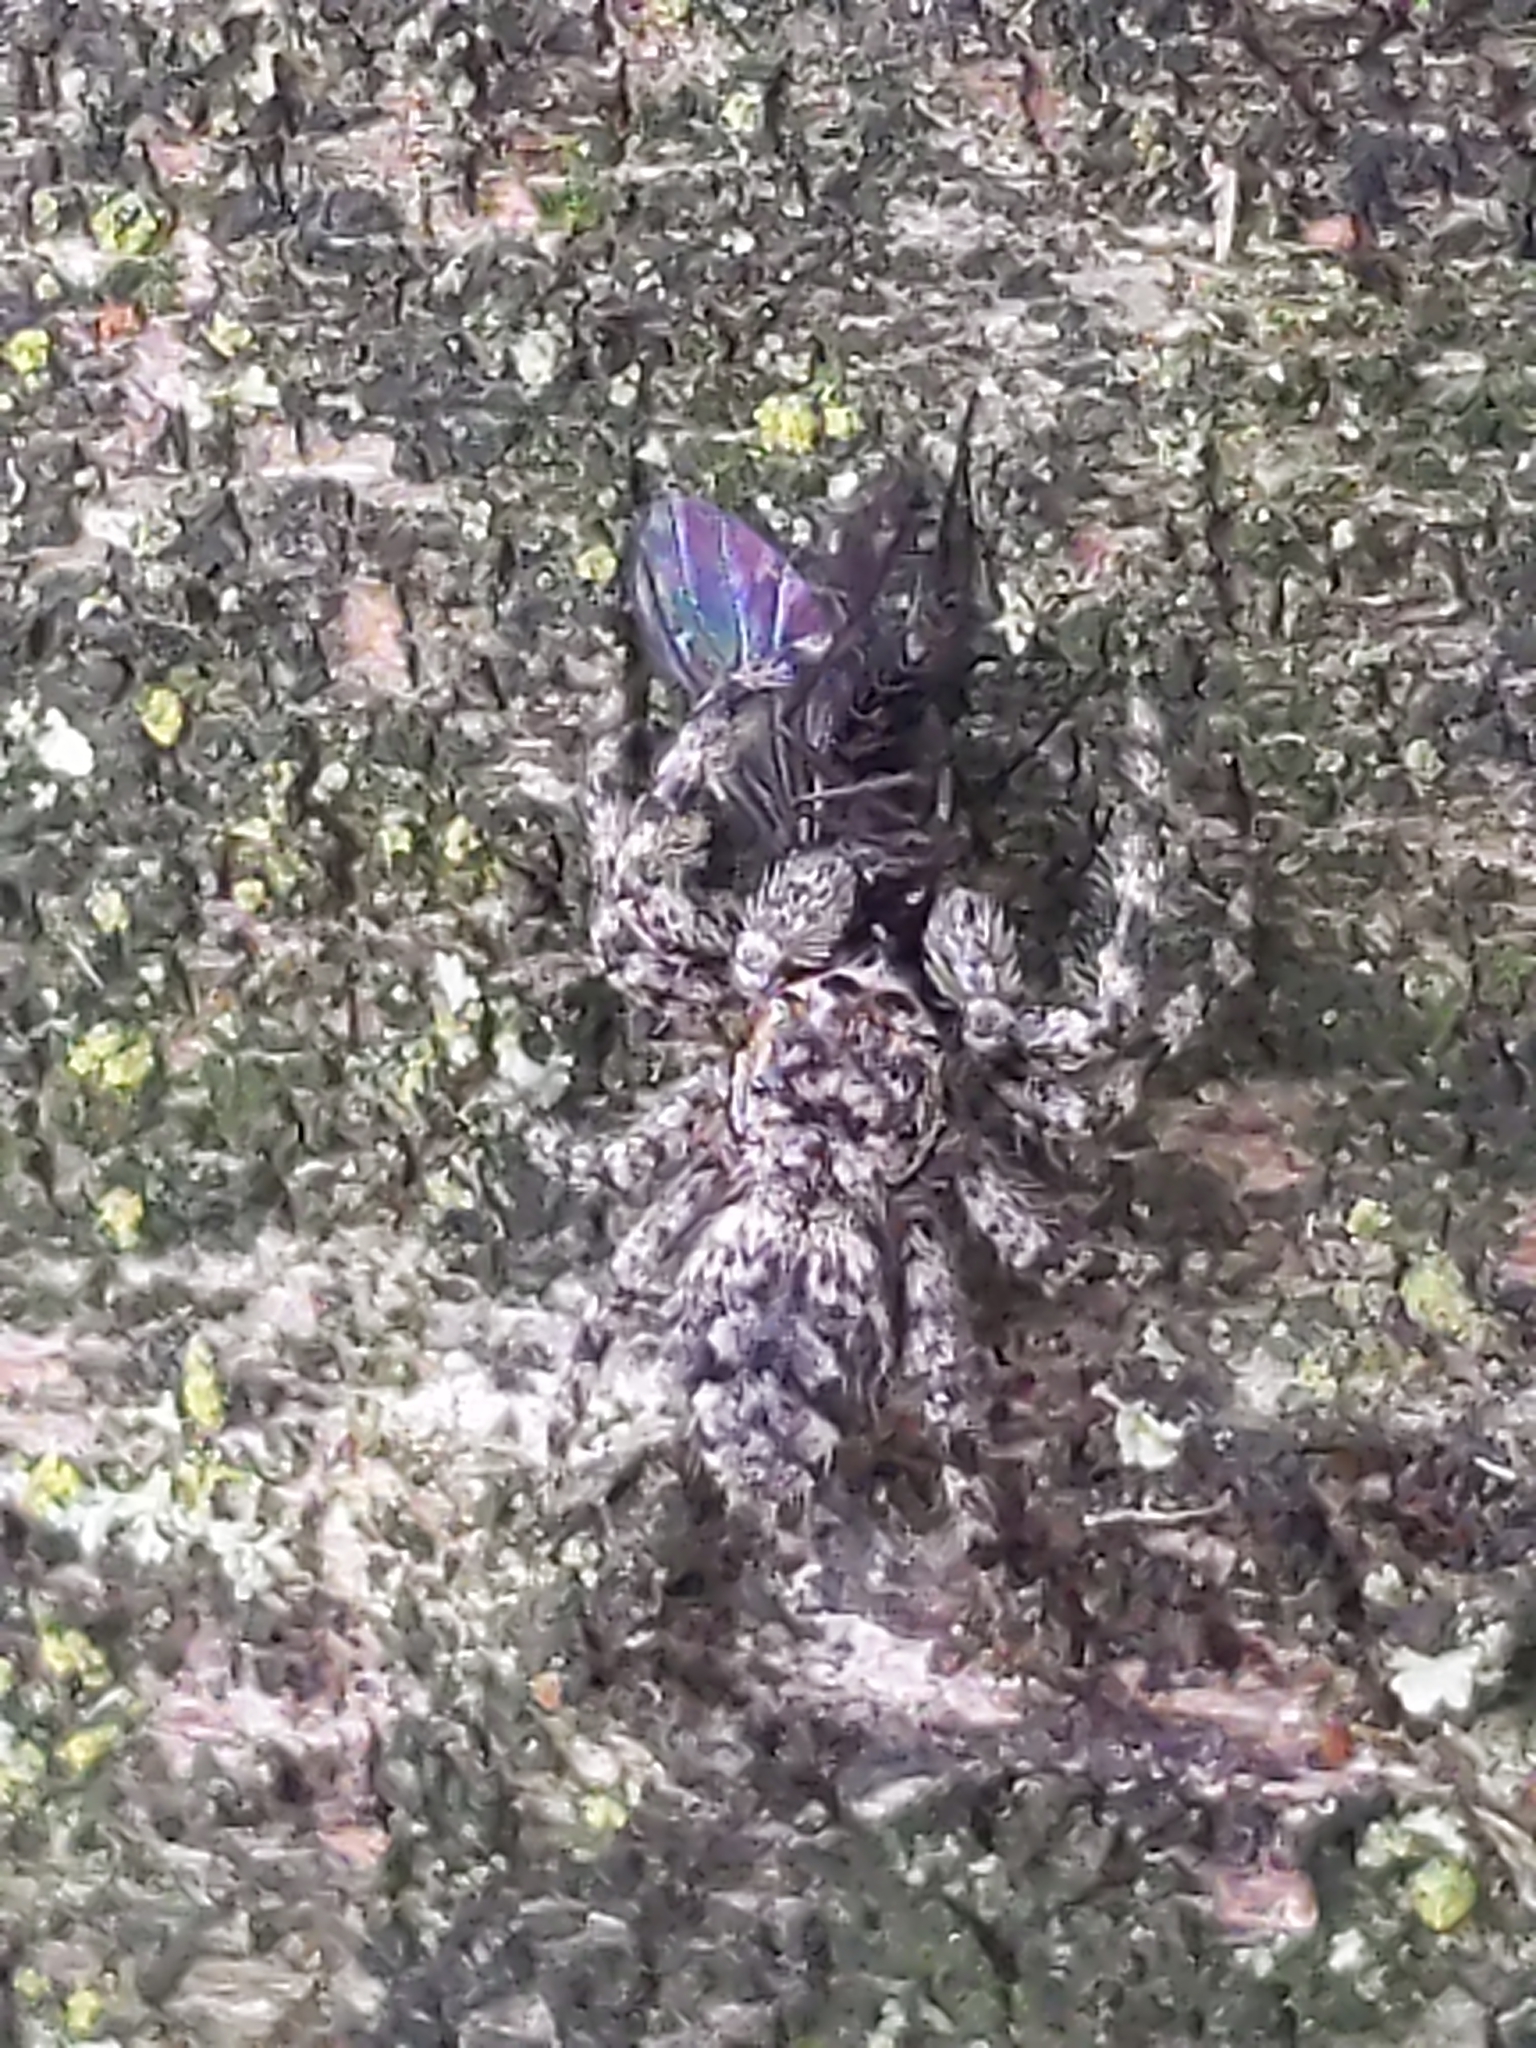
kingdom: Animalia
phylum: Arthropoda
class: Arachnida
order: Araneae
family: Salticidae
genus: Platycryptus
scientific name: Platycryptus undatus
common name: Tan jumping spider
